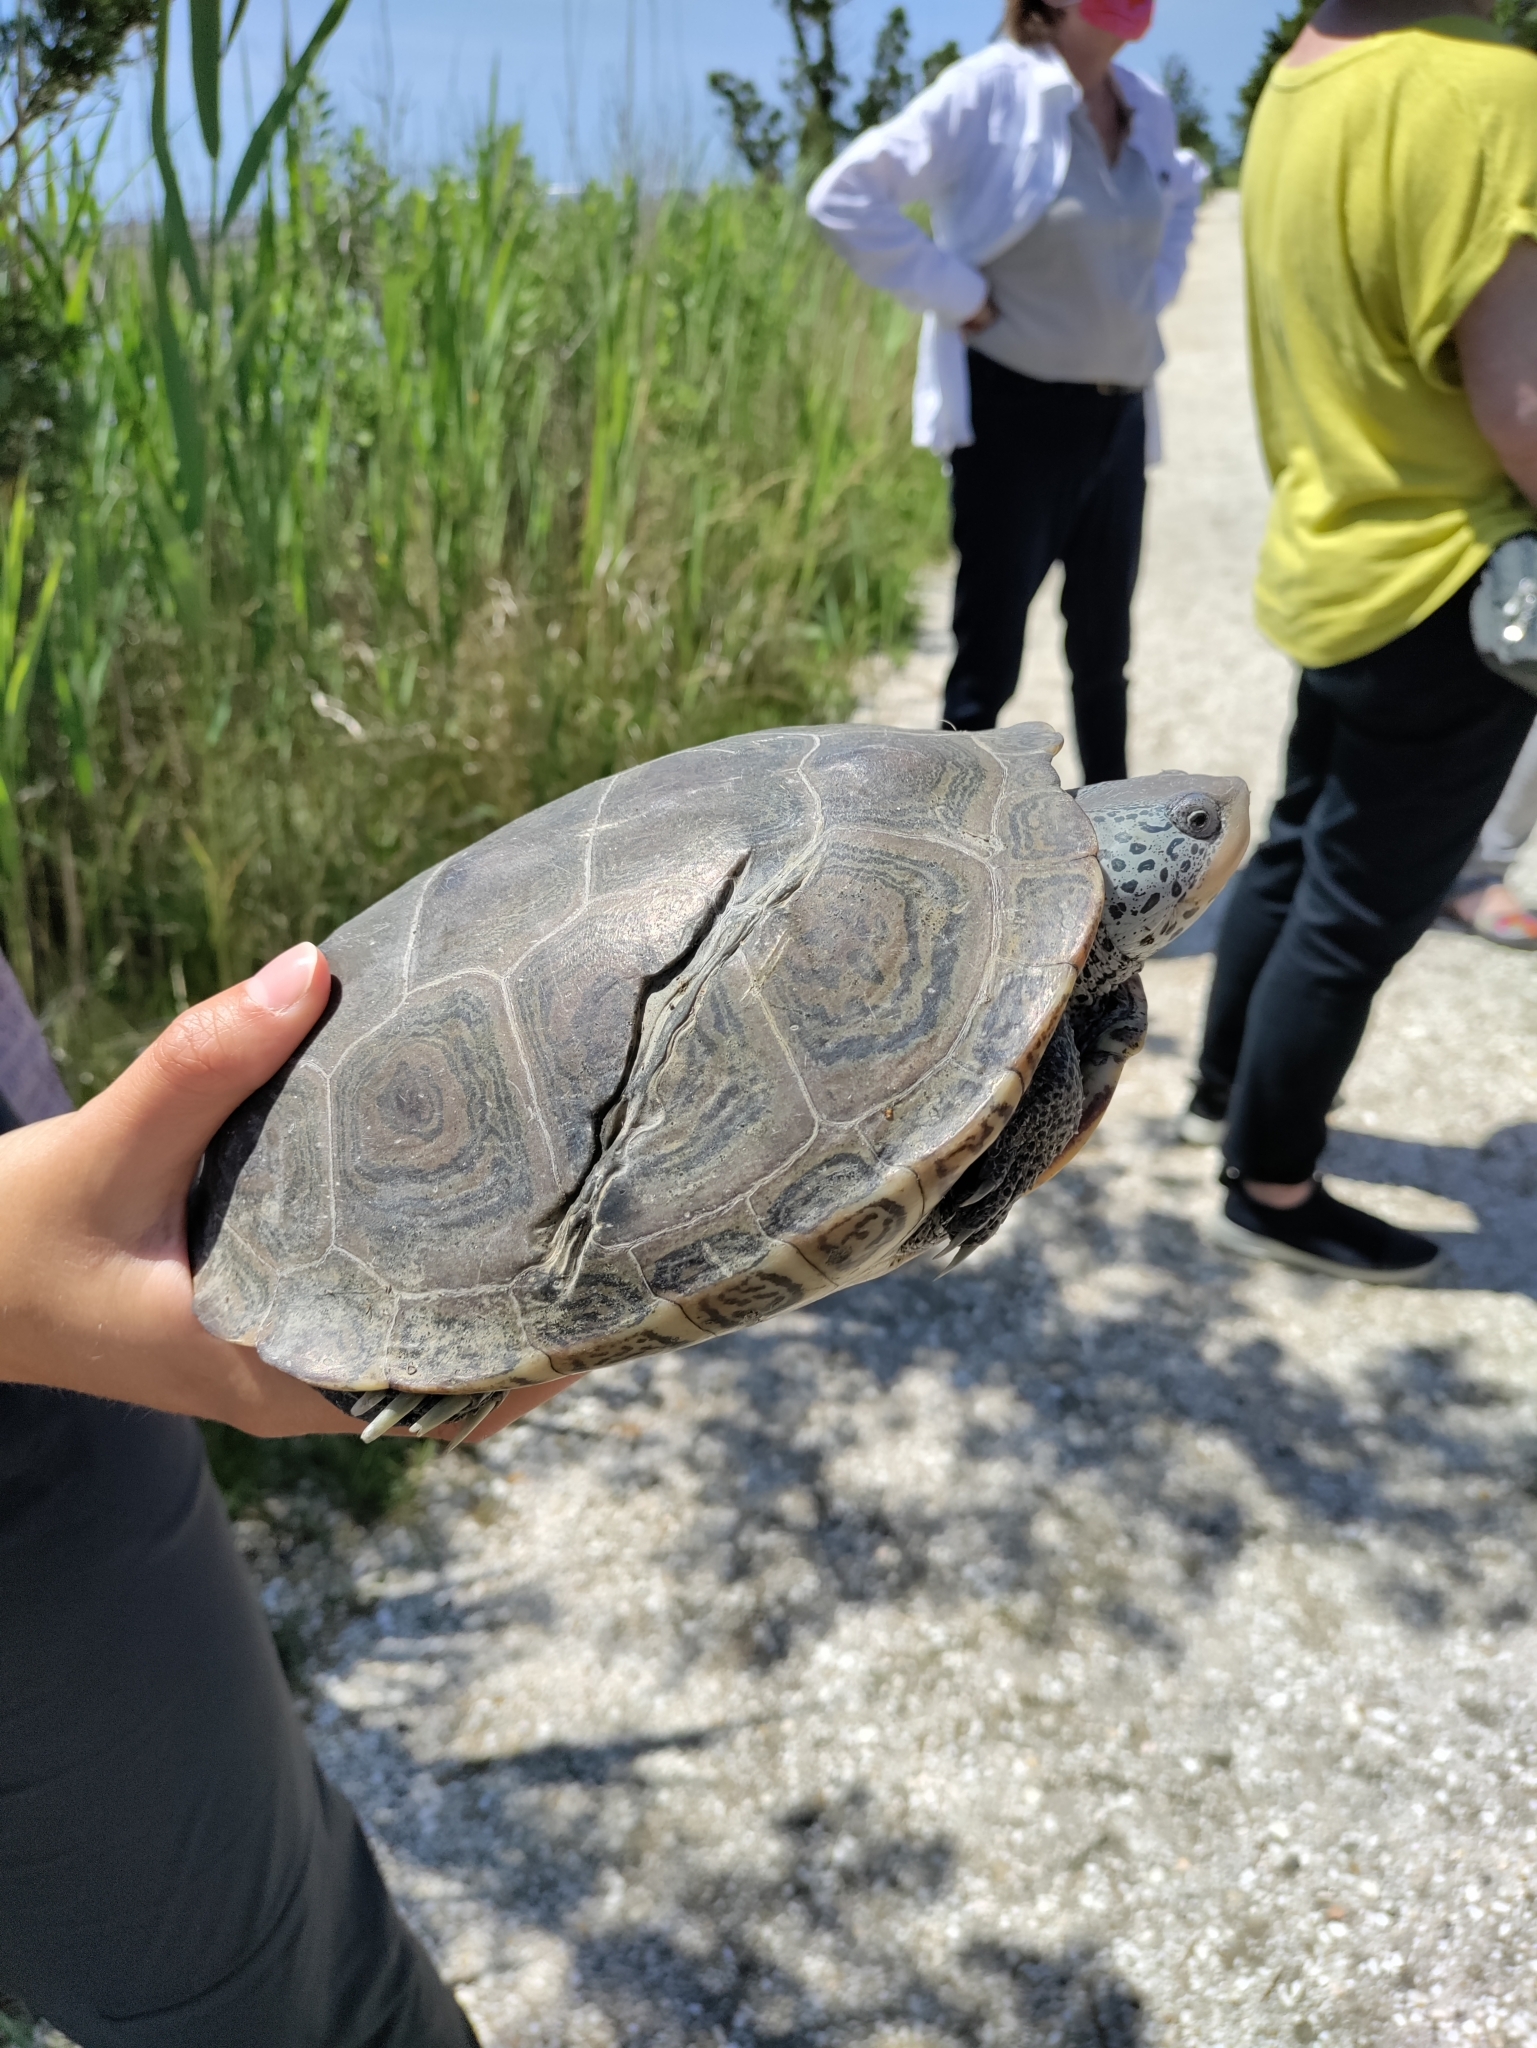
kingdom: Animalia
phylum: Chordata
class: Testudines
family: Emydidae
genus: Malaclemys
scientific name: Malaclemys terrapin
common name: Diamondback terrapin
